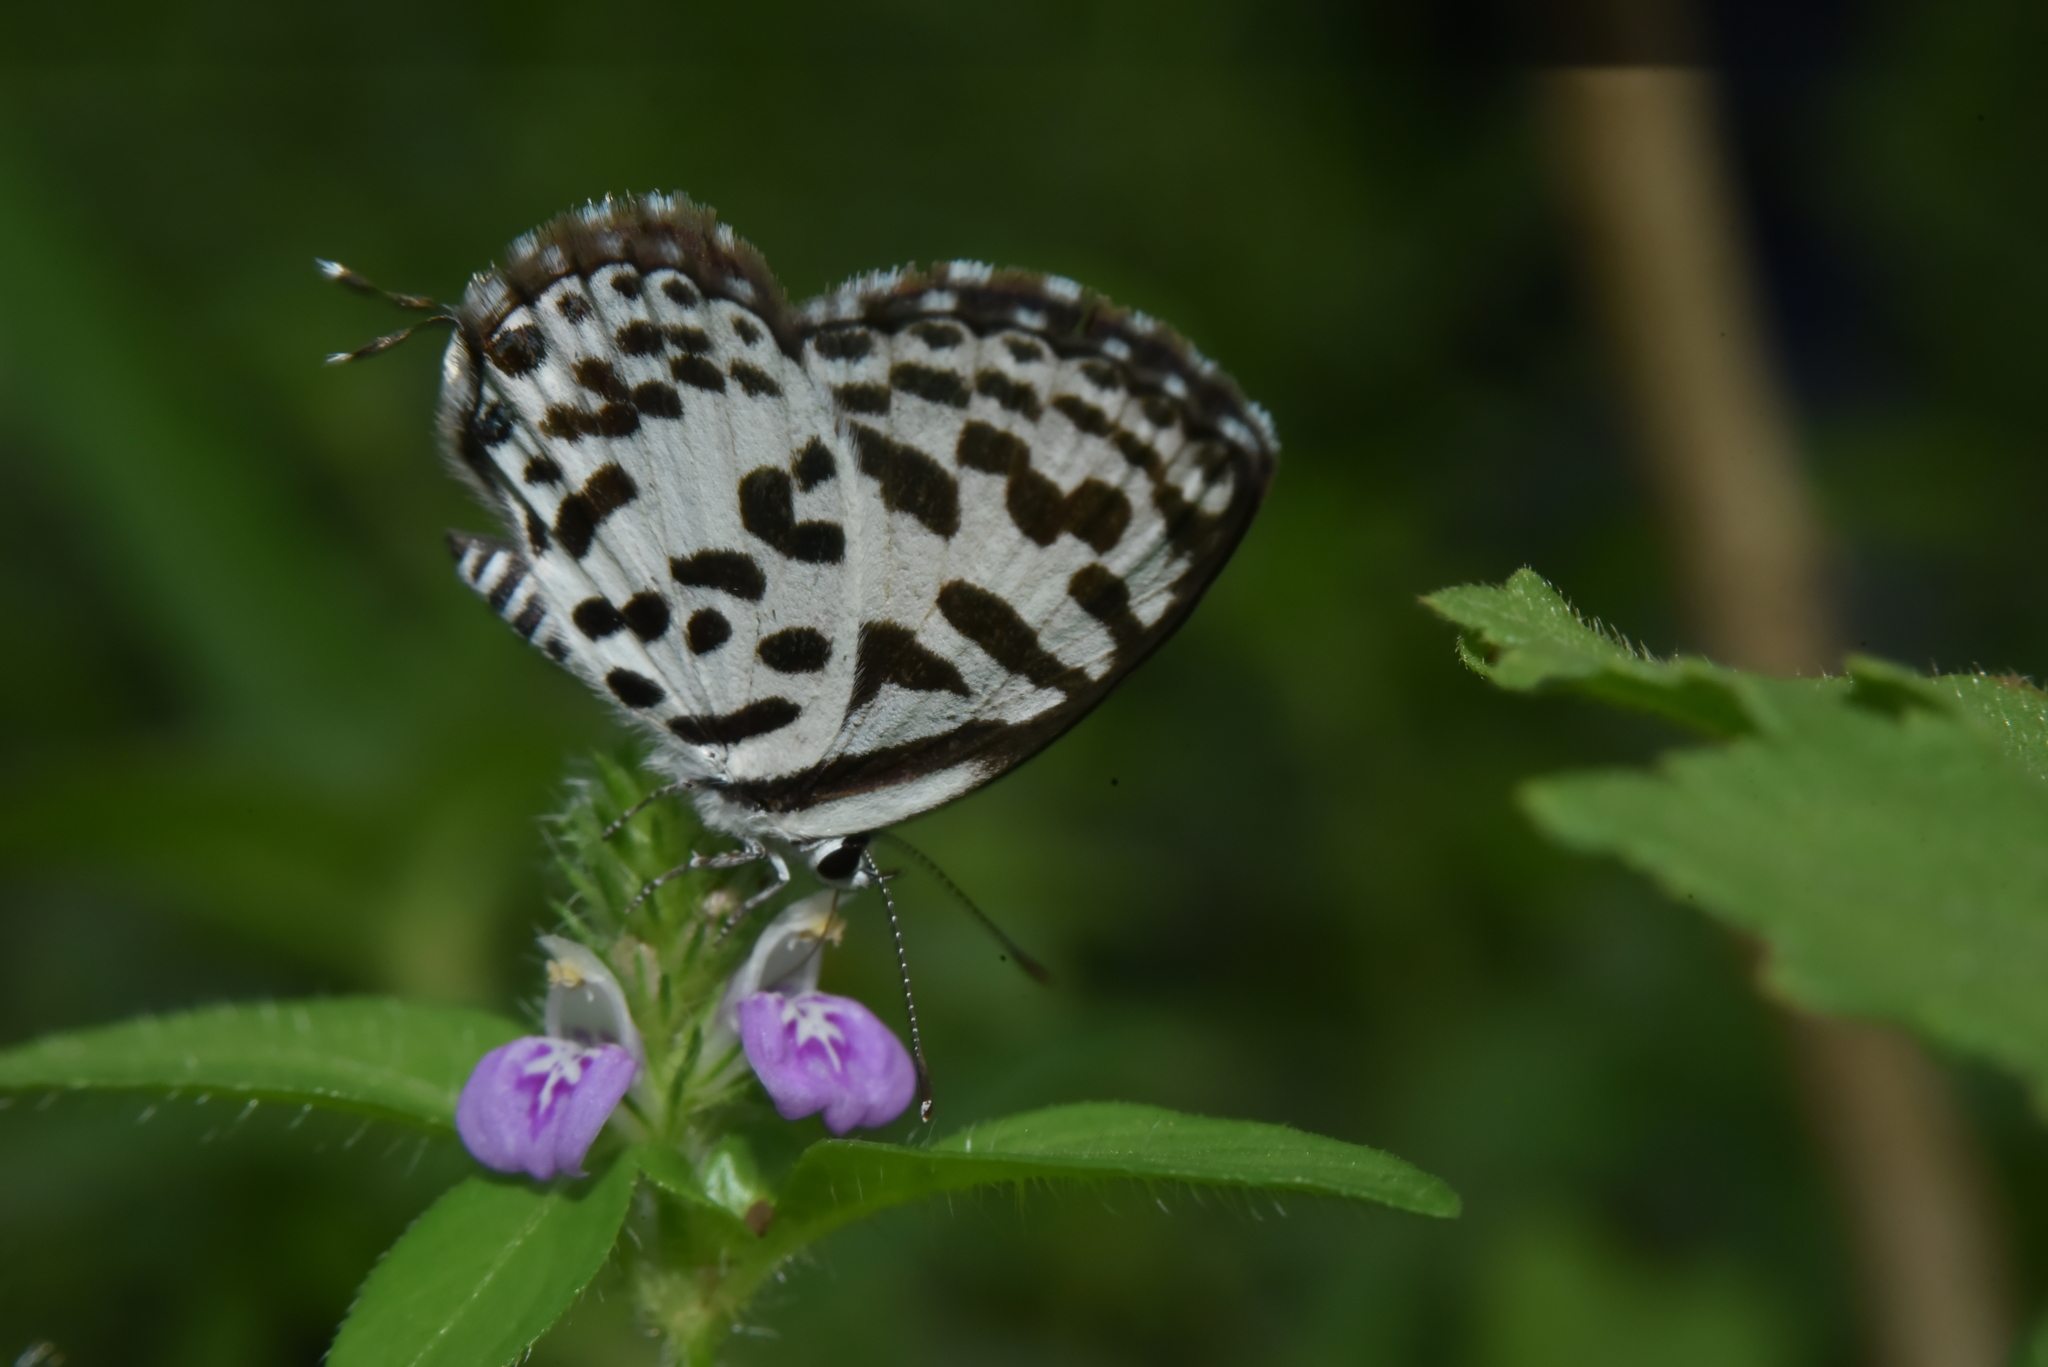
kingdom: Animalia
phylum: Arthropoda
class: Insecta
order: Lepidoptera
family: Lycaenidae
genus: Castalius
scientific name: Castalius rosimon
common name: Common pierrot
